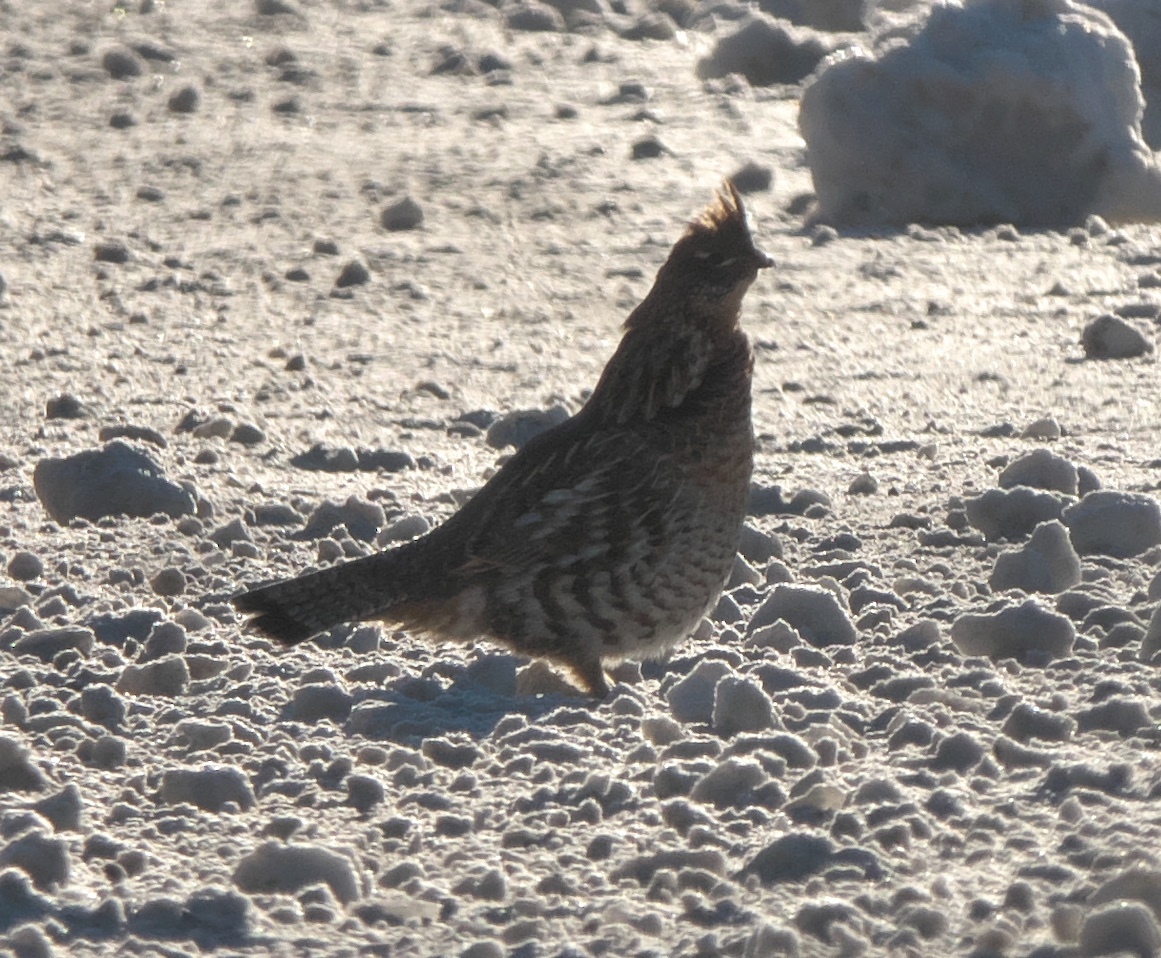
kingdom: Animalia
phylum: Chordata
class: Aves
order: Galliformes
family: Phasianidae
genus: Bonasa
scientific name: Bonasa umbellus
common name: Ruffed grouse
